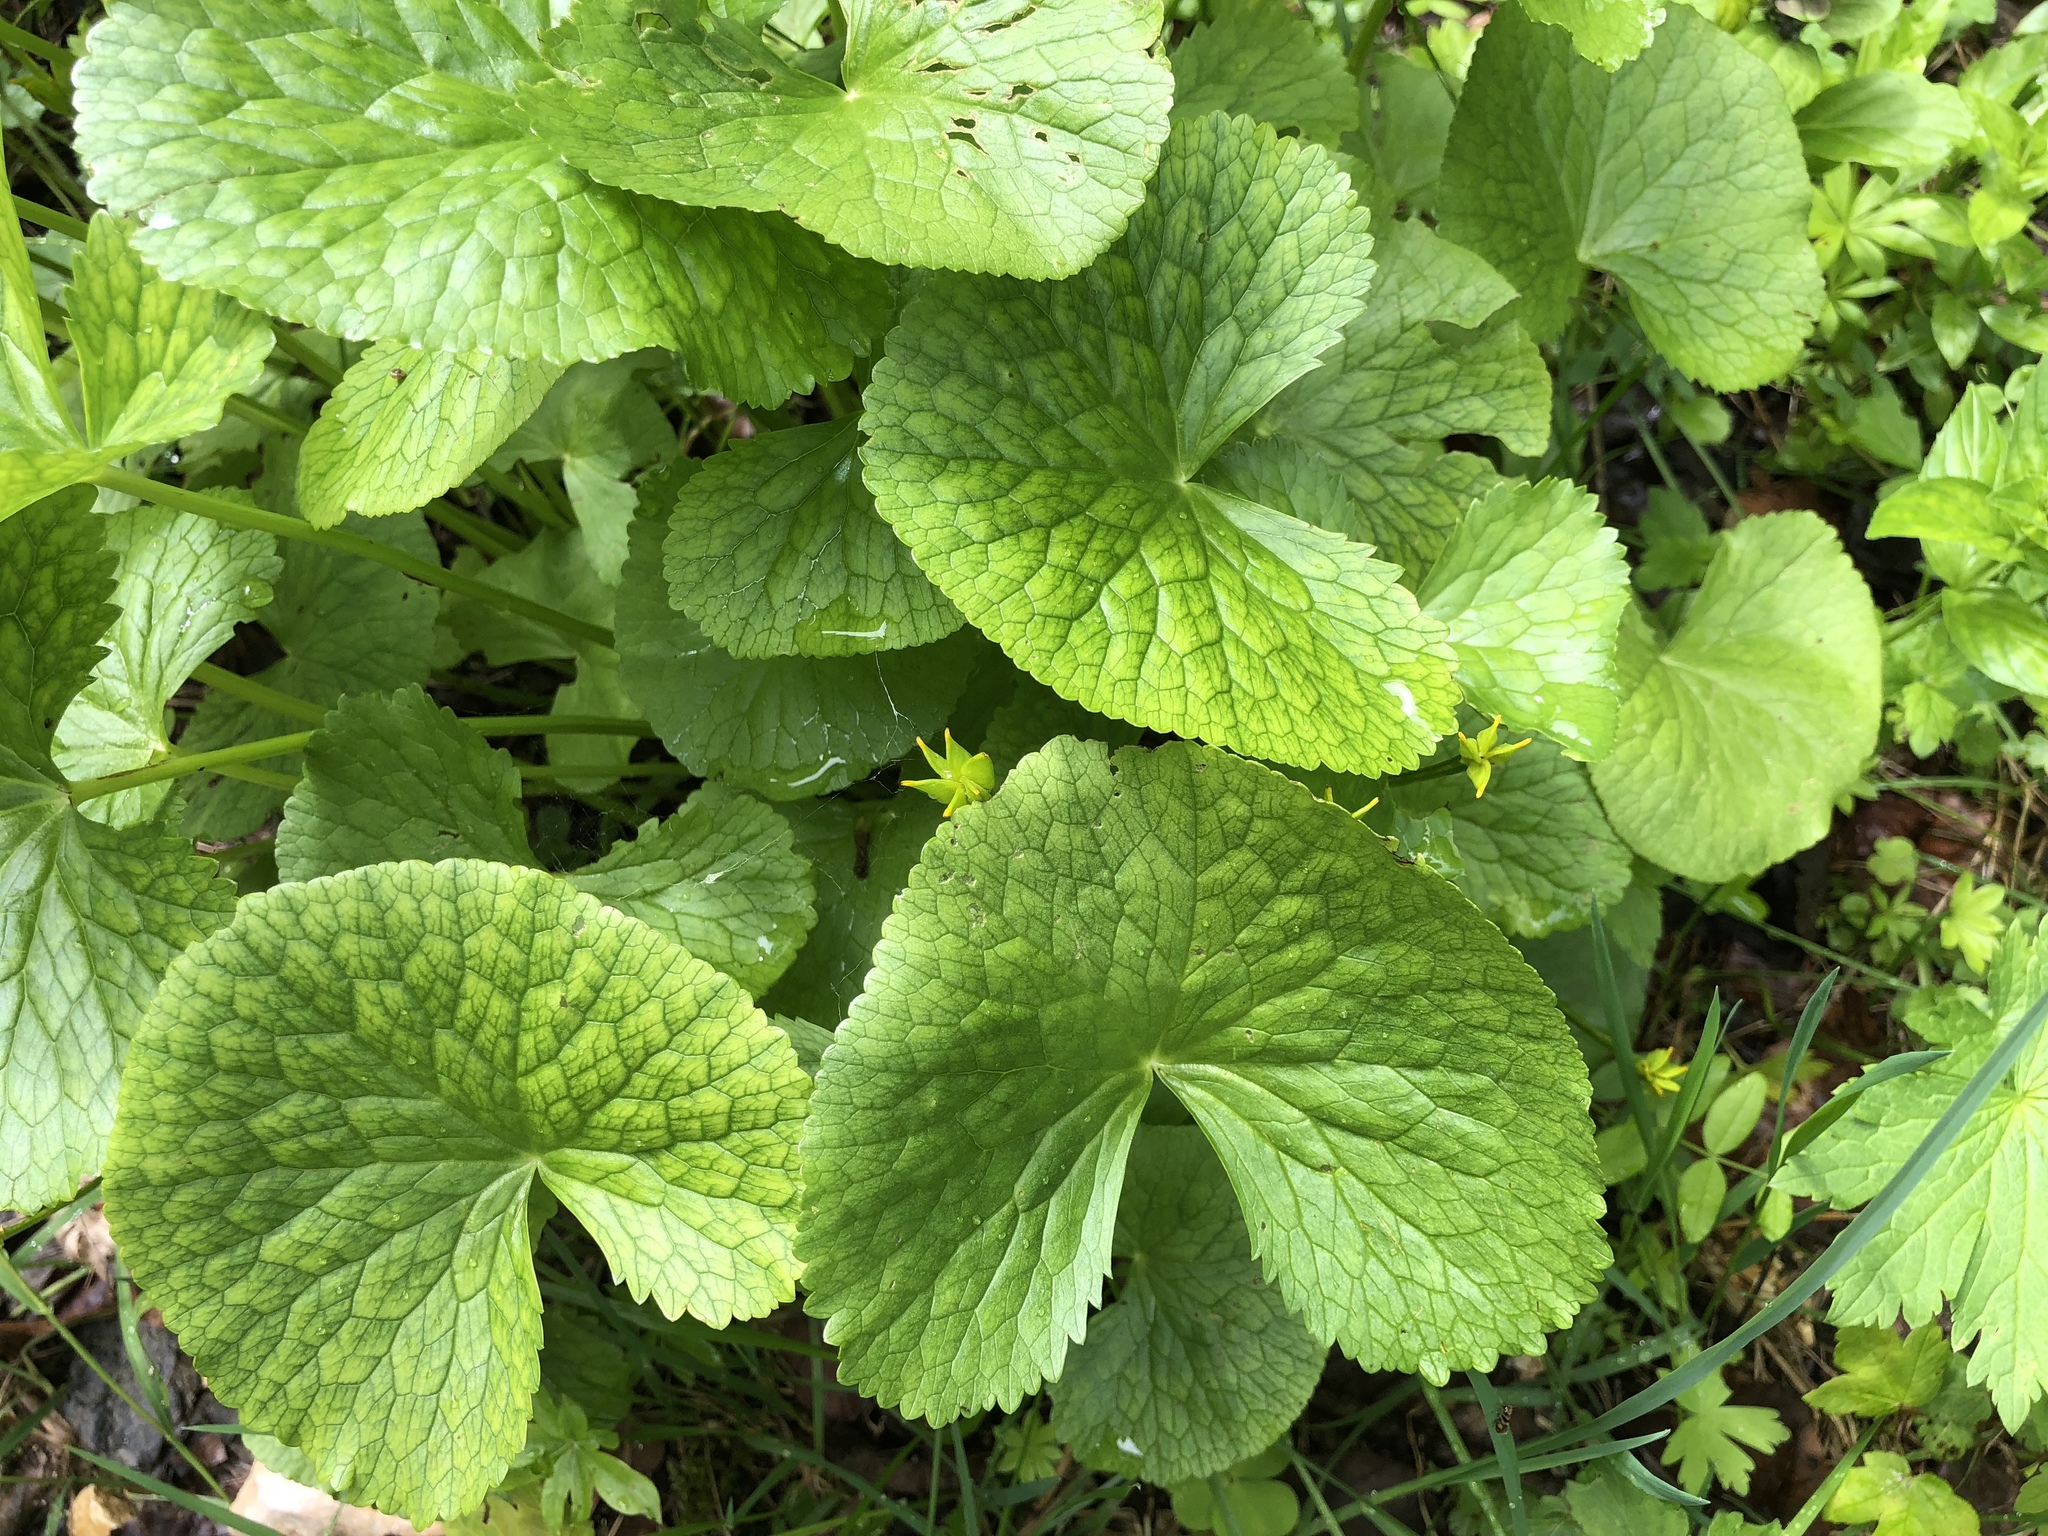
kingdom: Plantae
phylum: Tracheophyta
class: Magnoliopsida
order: Ranunculales
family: Ranunculaceae
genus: Caltha
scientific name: Caltha palustris
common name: Marsh marigold
